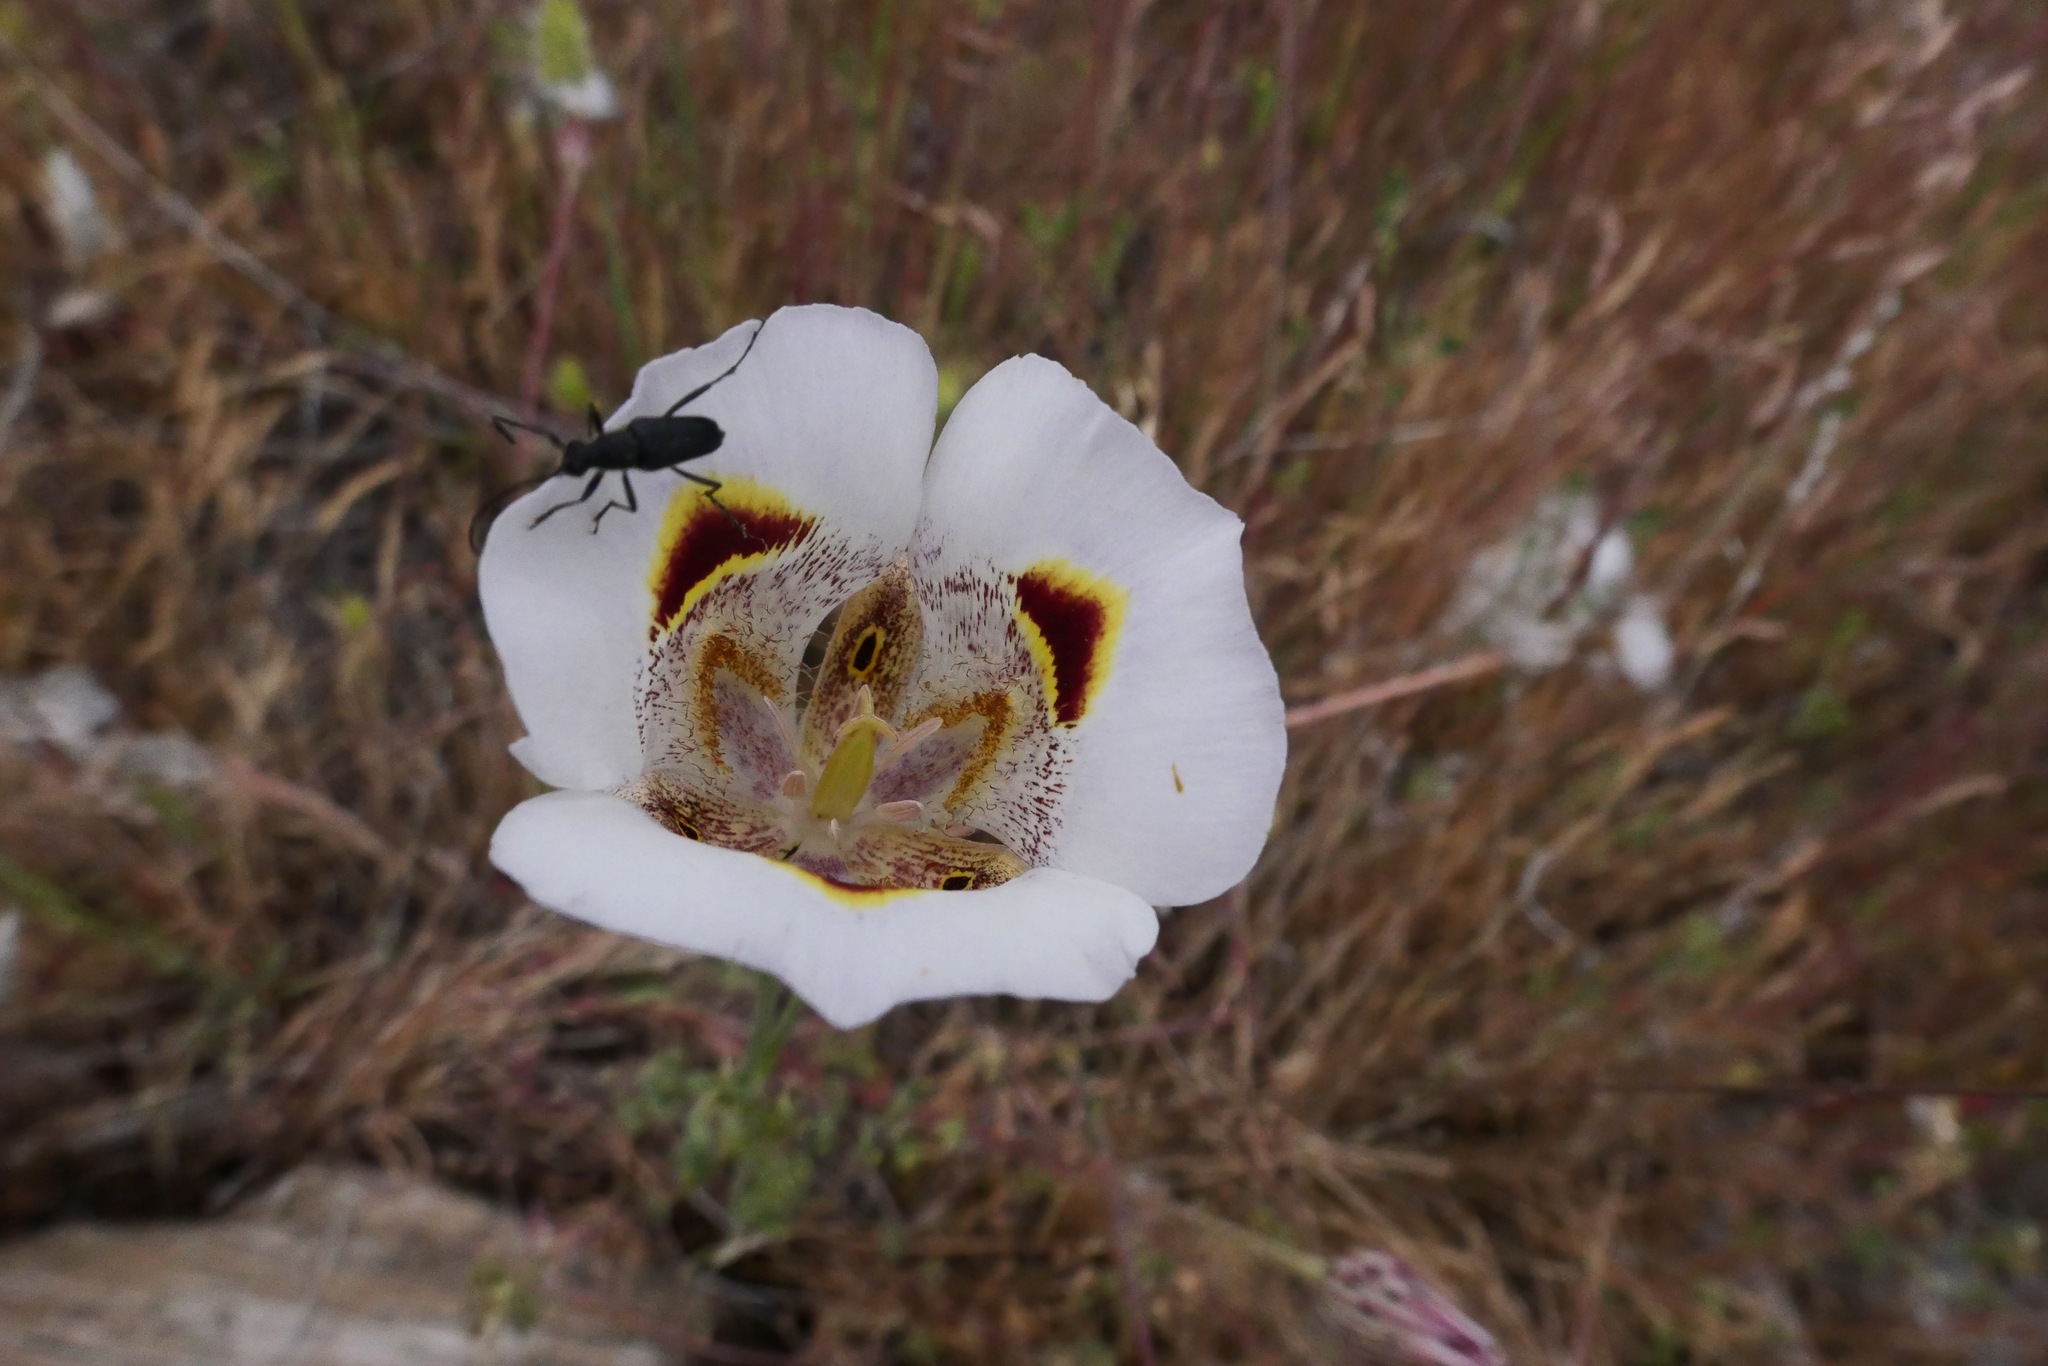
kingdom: Plantae
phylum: Tracheophyta
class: Liliopsida
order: Liliales
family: Liliaceae
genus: Calochortus
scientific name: Calochortus superbus
